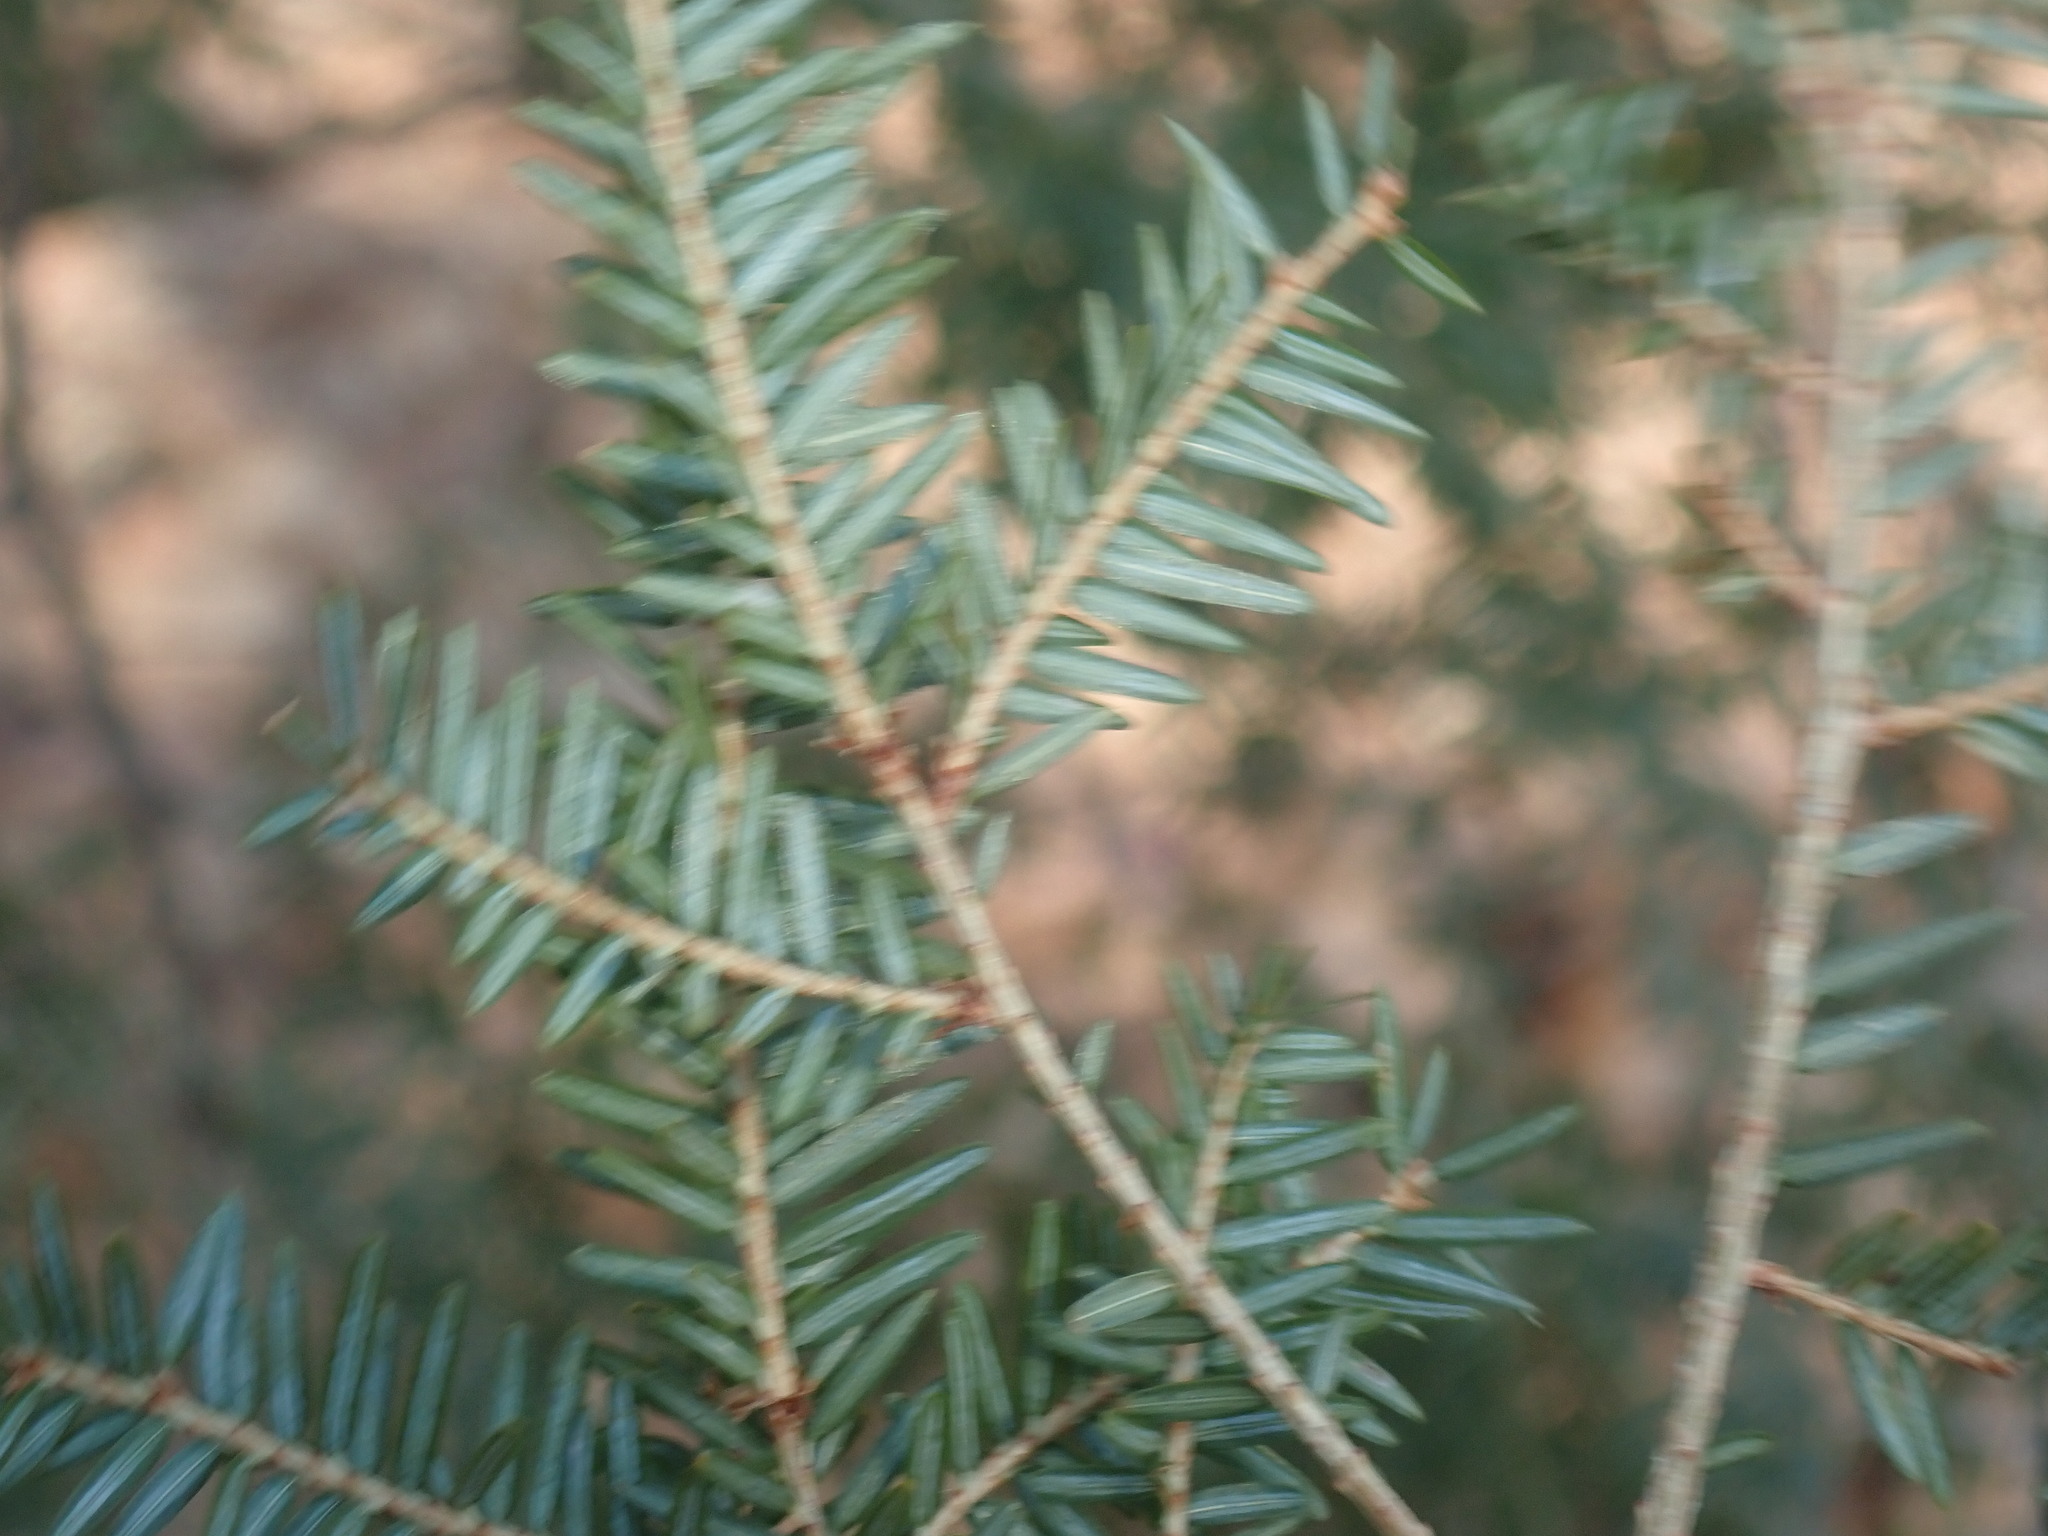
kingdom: Plantae
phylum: Tracheophyta
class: Pinopsida
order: Pinales
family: Pinaceae
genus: Tsuga
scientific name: Tsuga canadensis
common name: Eastern hemlock
